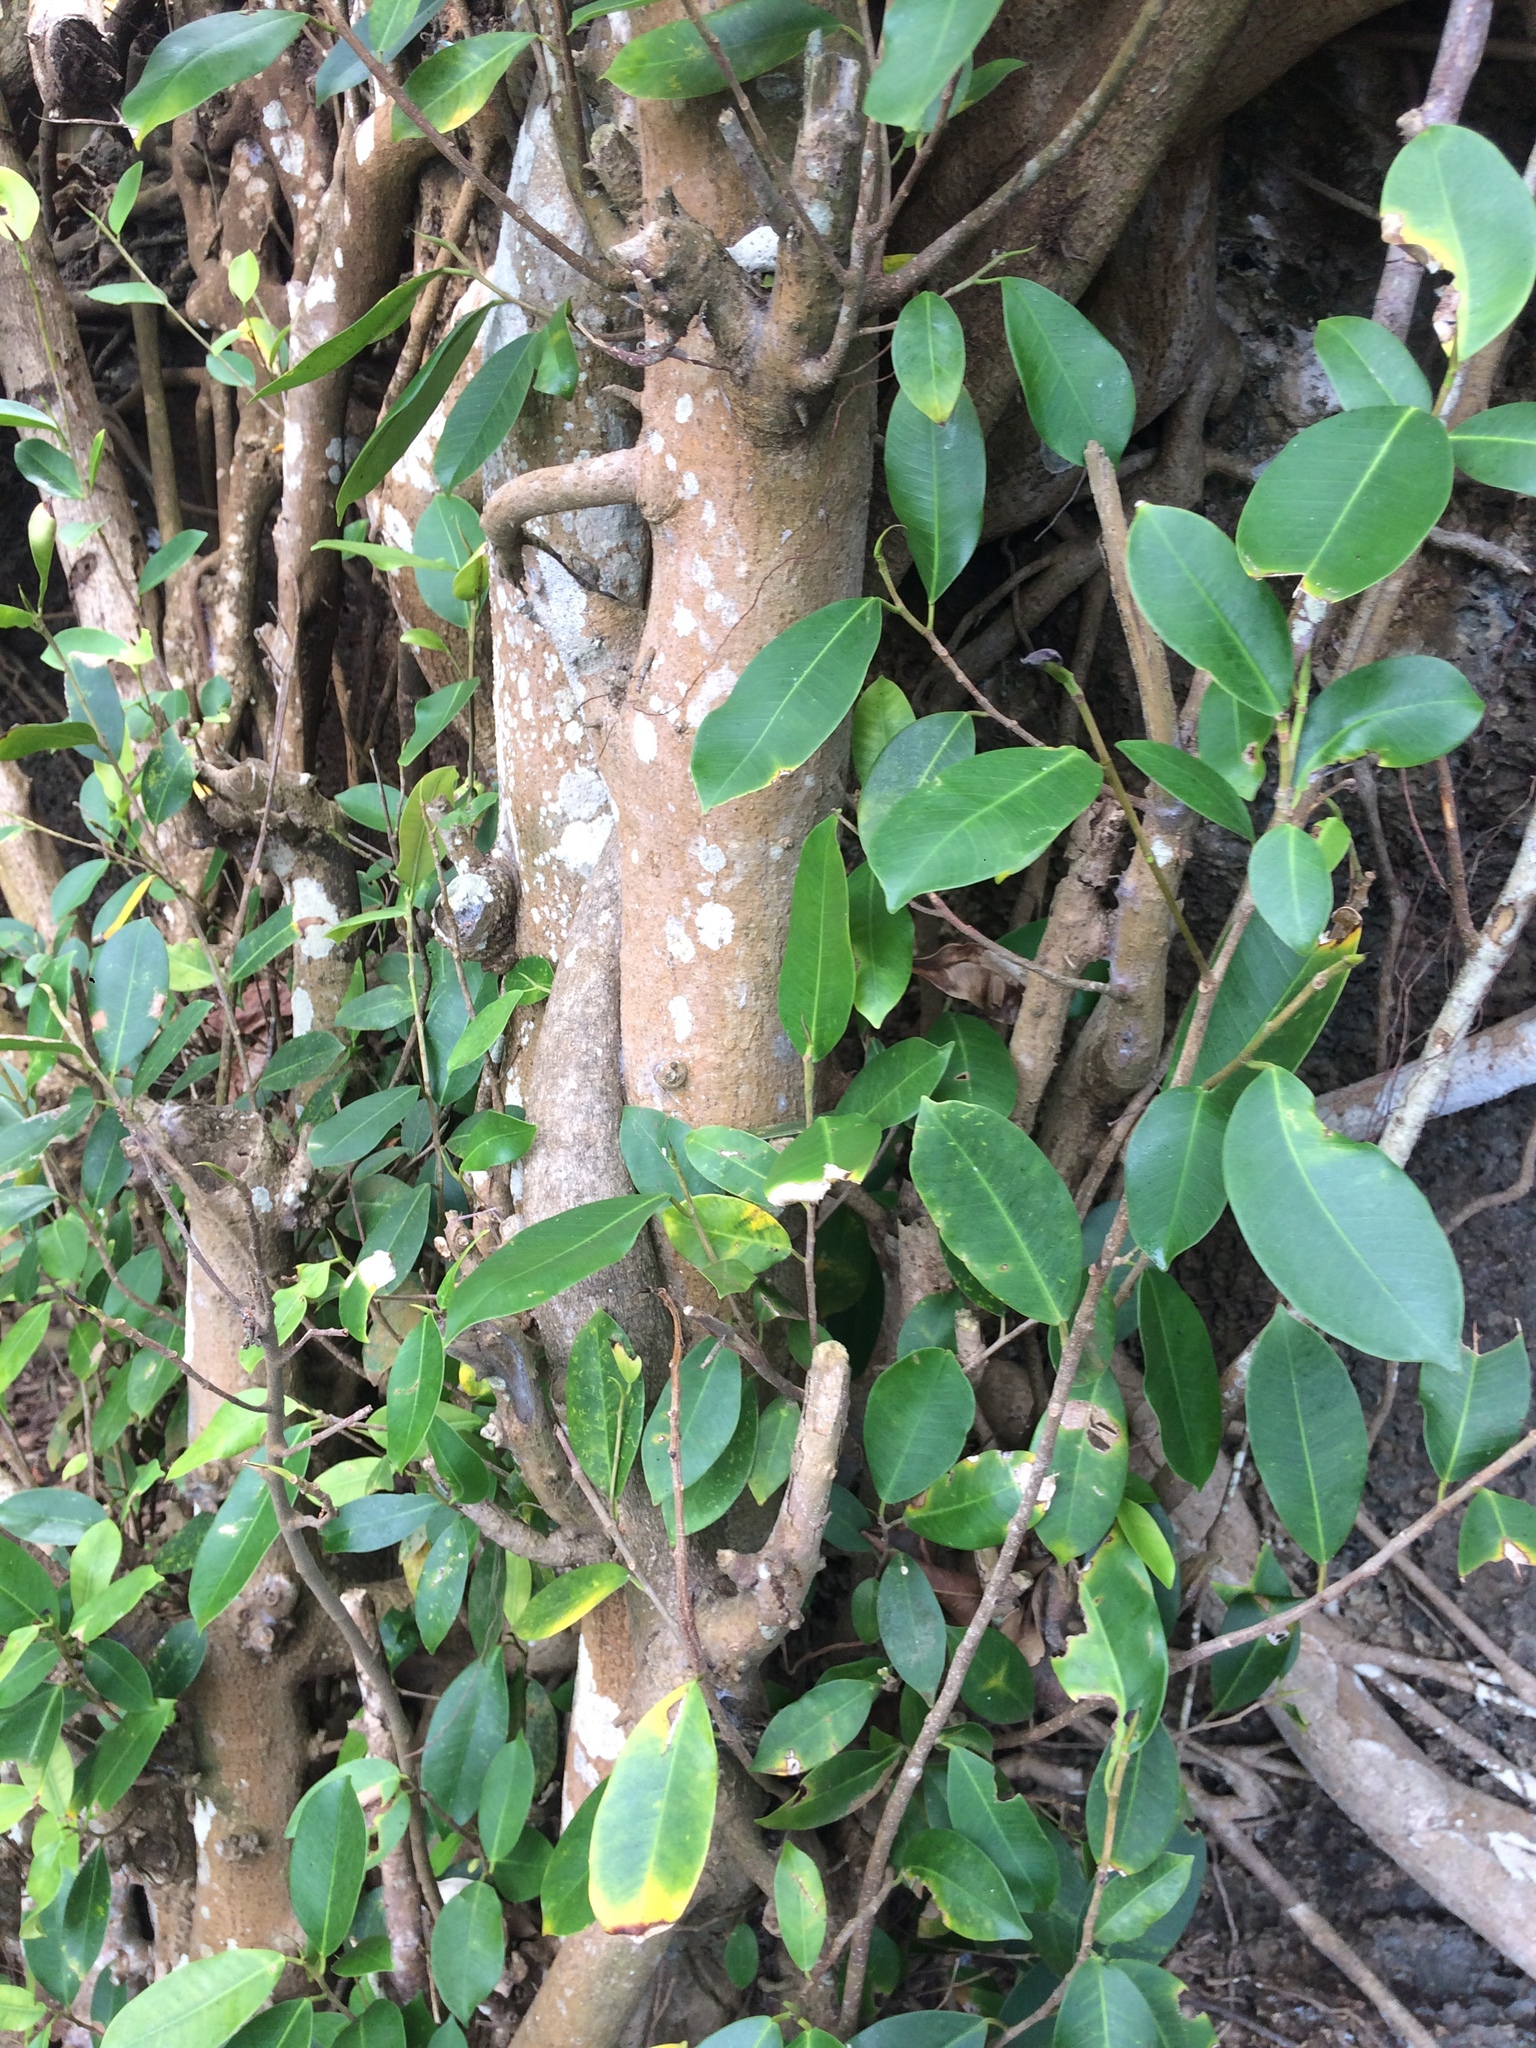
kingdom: Plantae
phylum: Tracheophyta
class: Magnoliopsida
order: Rosales
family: Moraceae
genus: Ficus
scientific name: Ficus virens
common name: Spotted fig
